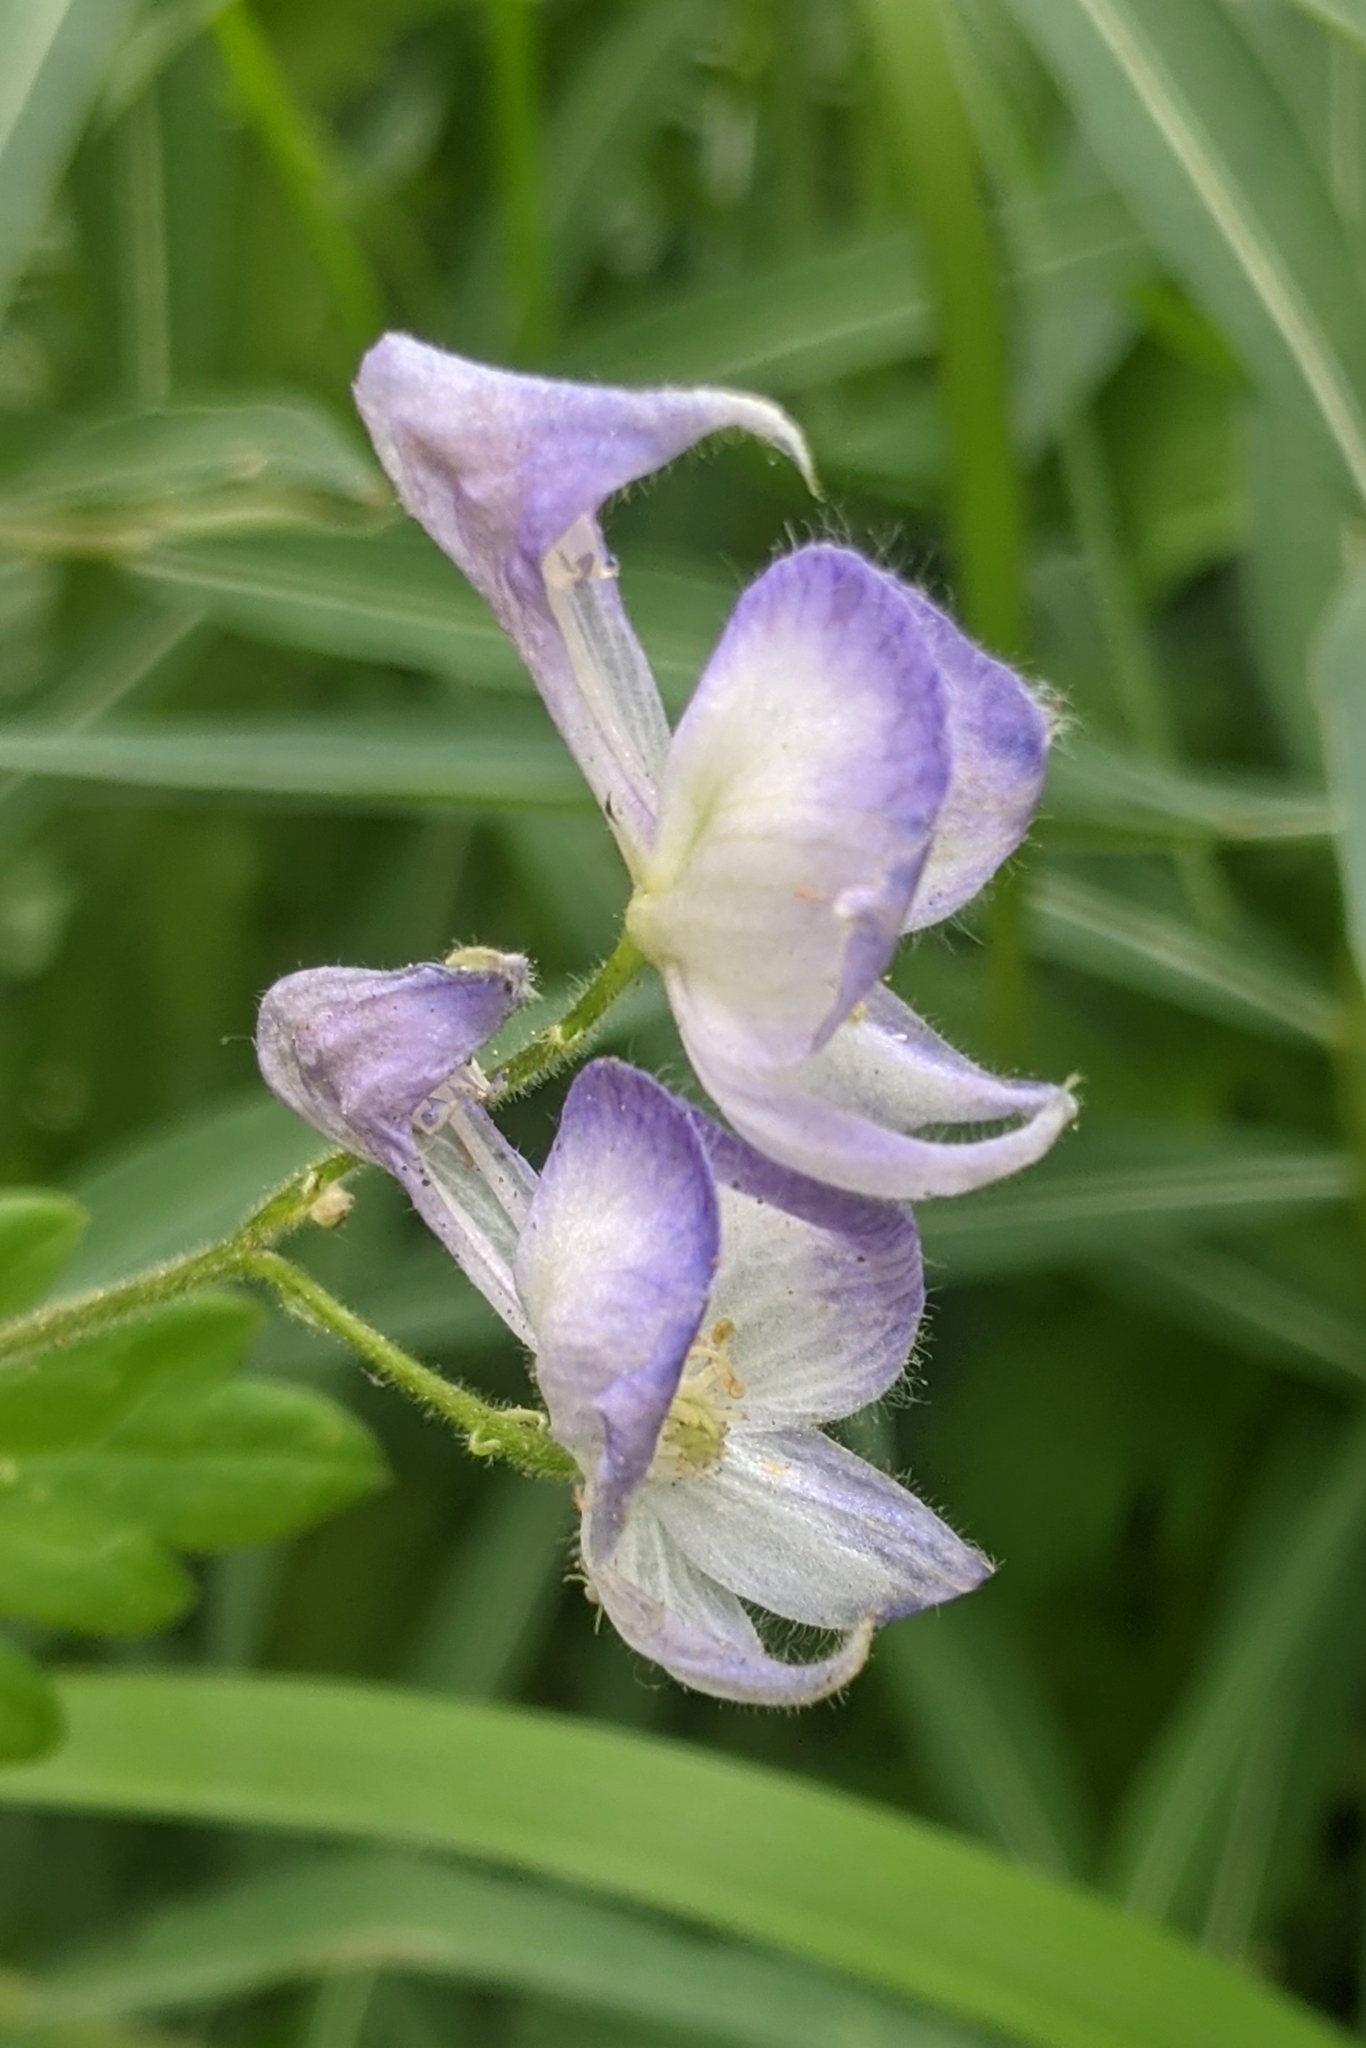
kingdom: Plantae
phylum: Tracheophyta
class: Magnoliopsida
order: Ranunculales
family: Ranunculaceae
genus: Aconitum
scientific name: Aconitum columbianum
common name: Columbia aconite
